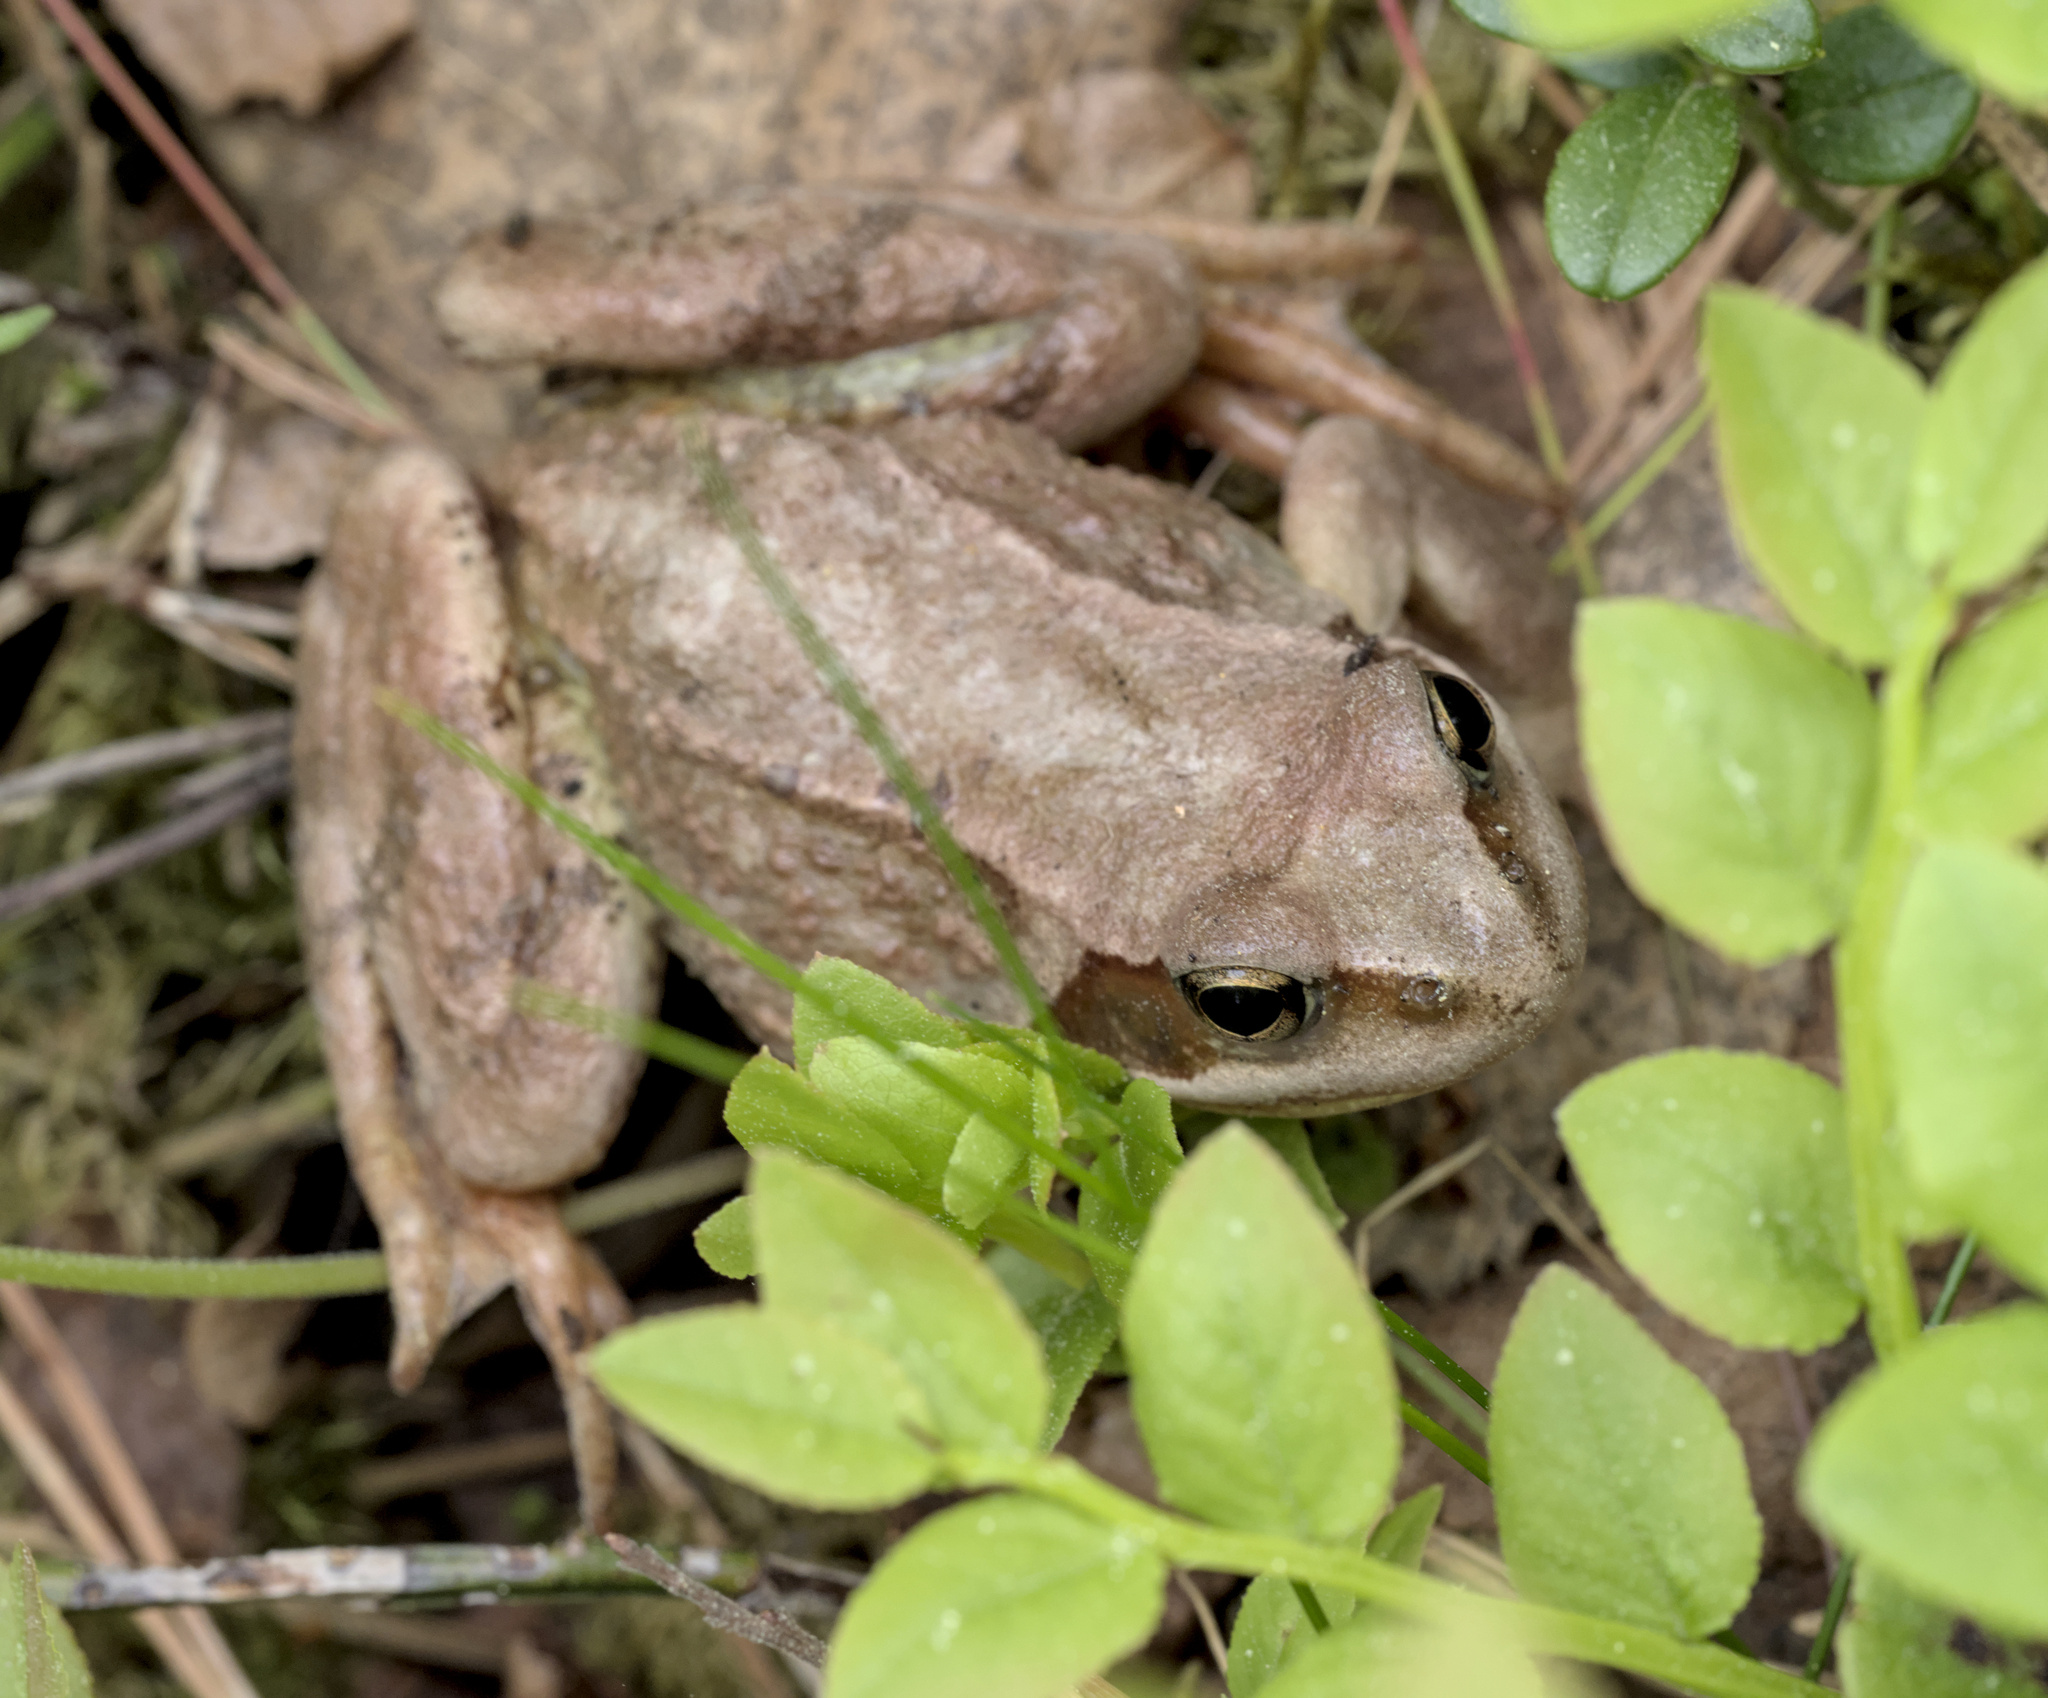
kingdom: Animalia
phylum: Chordata
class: Amphibia
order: Anura
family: Ranidae
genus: Rana
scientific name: Rana temporaria
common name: Common frog
